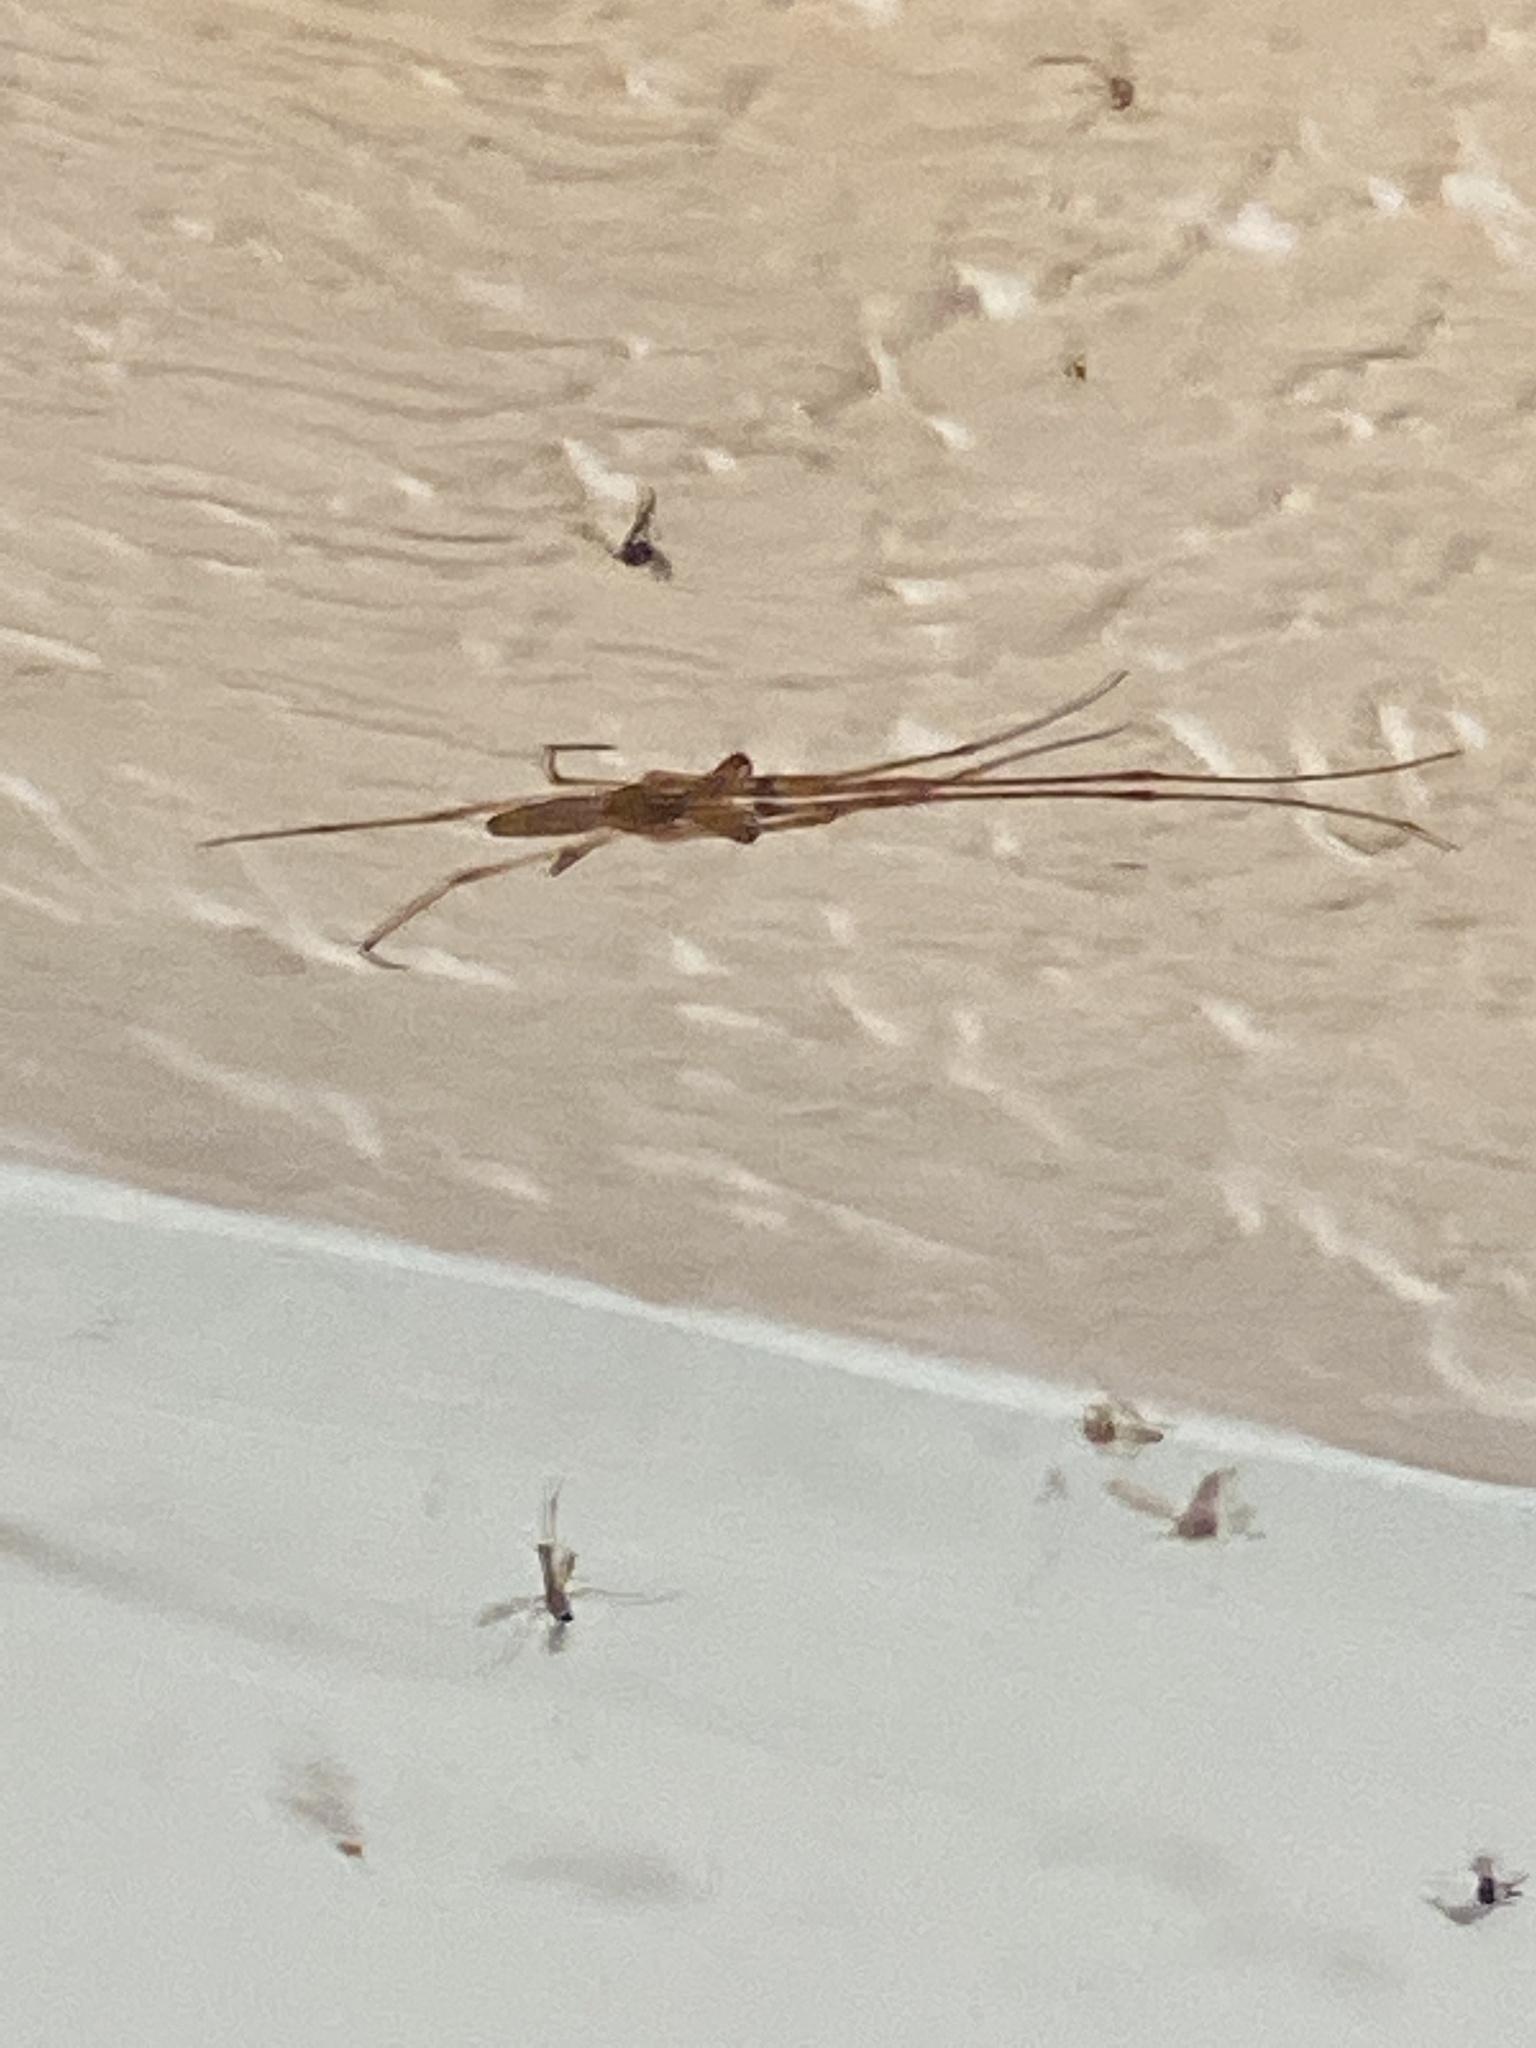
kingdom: Animalia
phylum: Arthropoda
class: Arachnida
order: Araneae
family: Tetragnathidae
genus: Tetragnatha
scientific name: Tetragnatha
